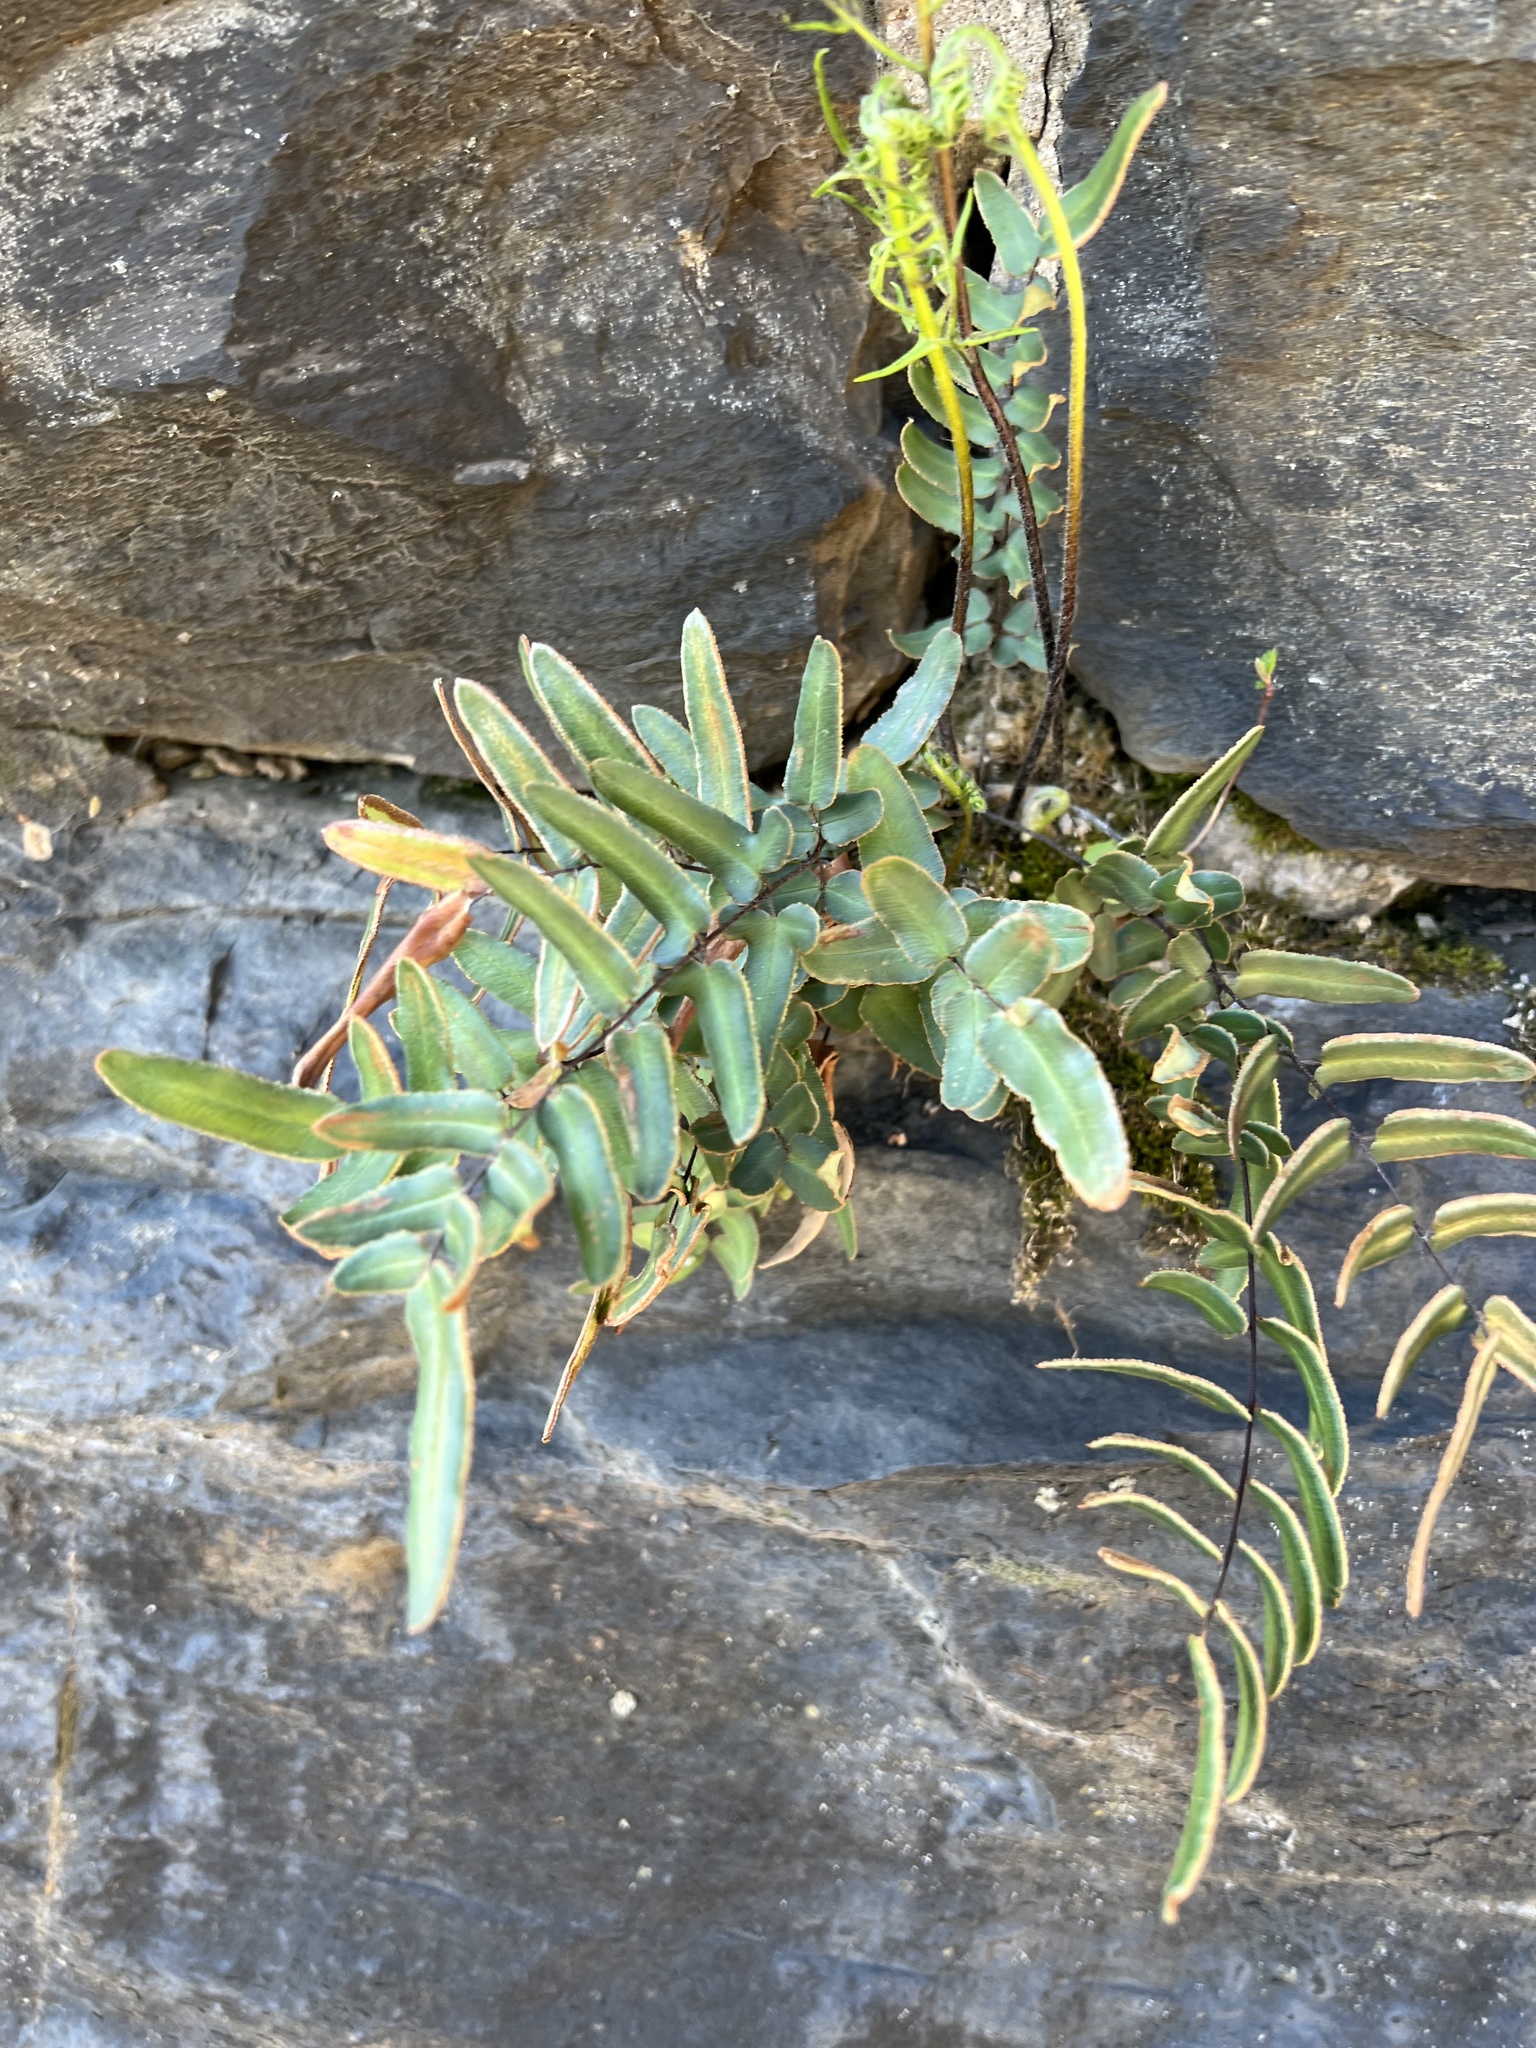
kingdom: Plantae
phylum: Tracheophyta
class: Polypodiopsida
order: Polypodiales
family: Pteridaceae
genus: Pellaea
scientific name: Pellaea atropurpurea
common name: Hairy cliffbrake
